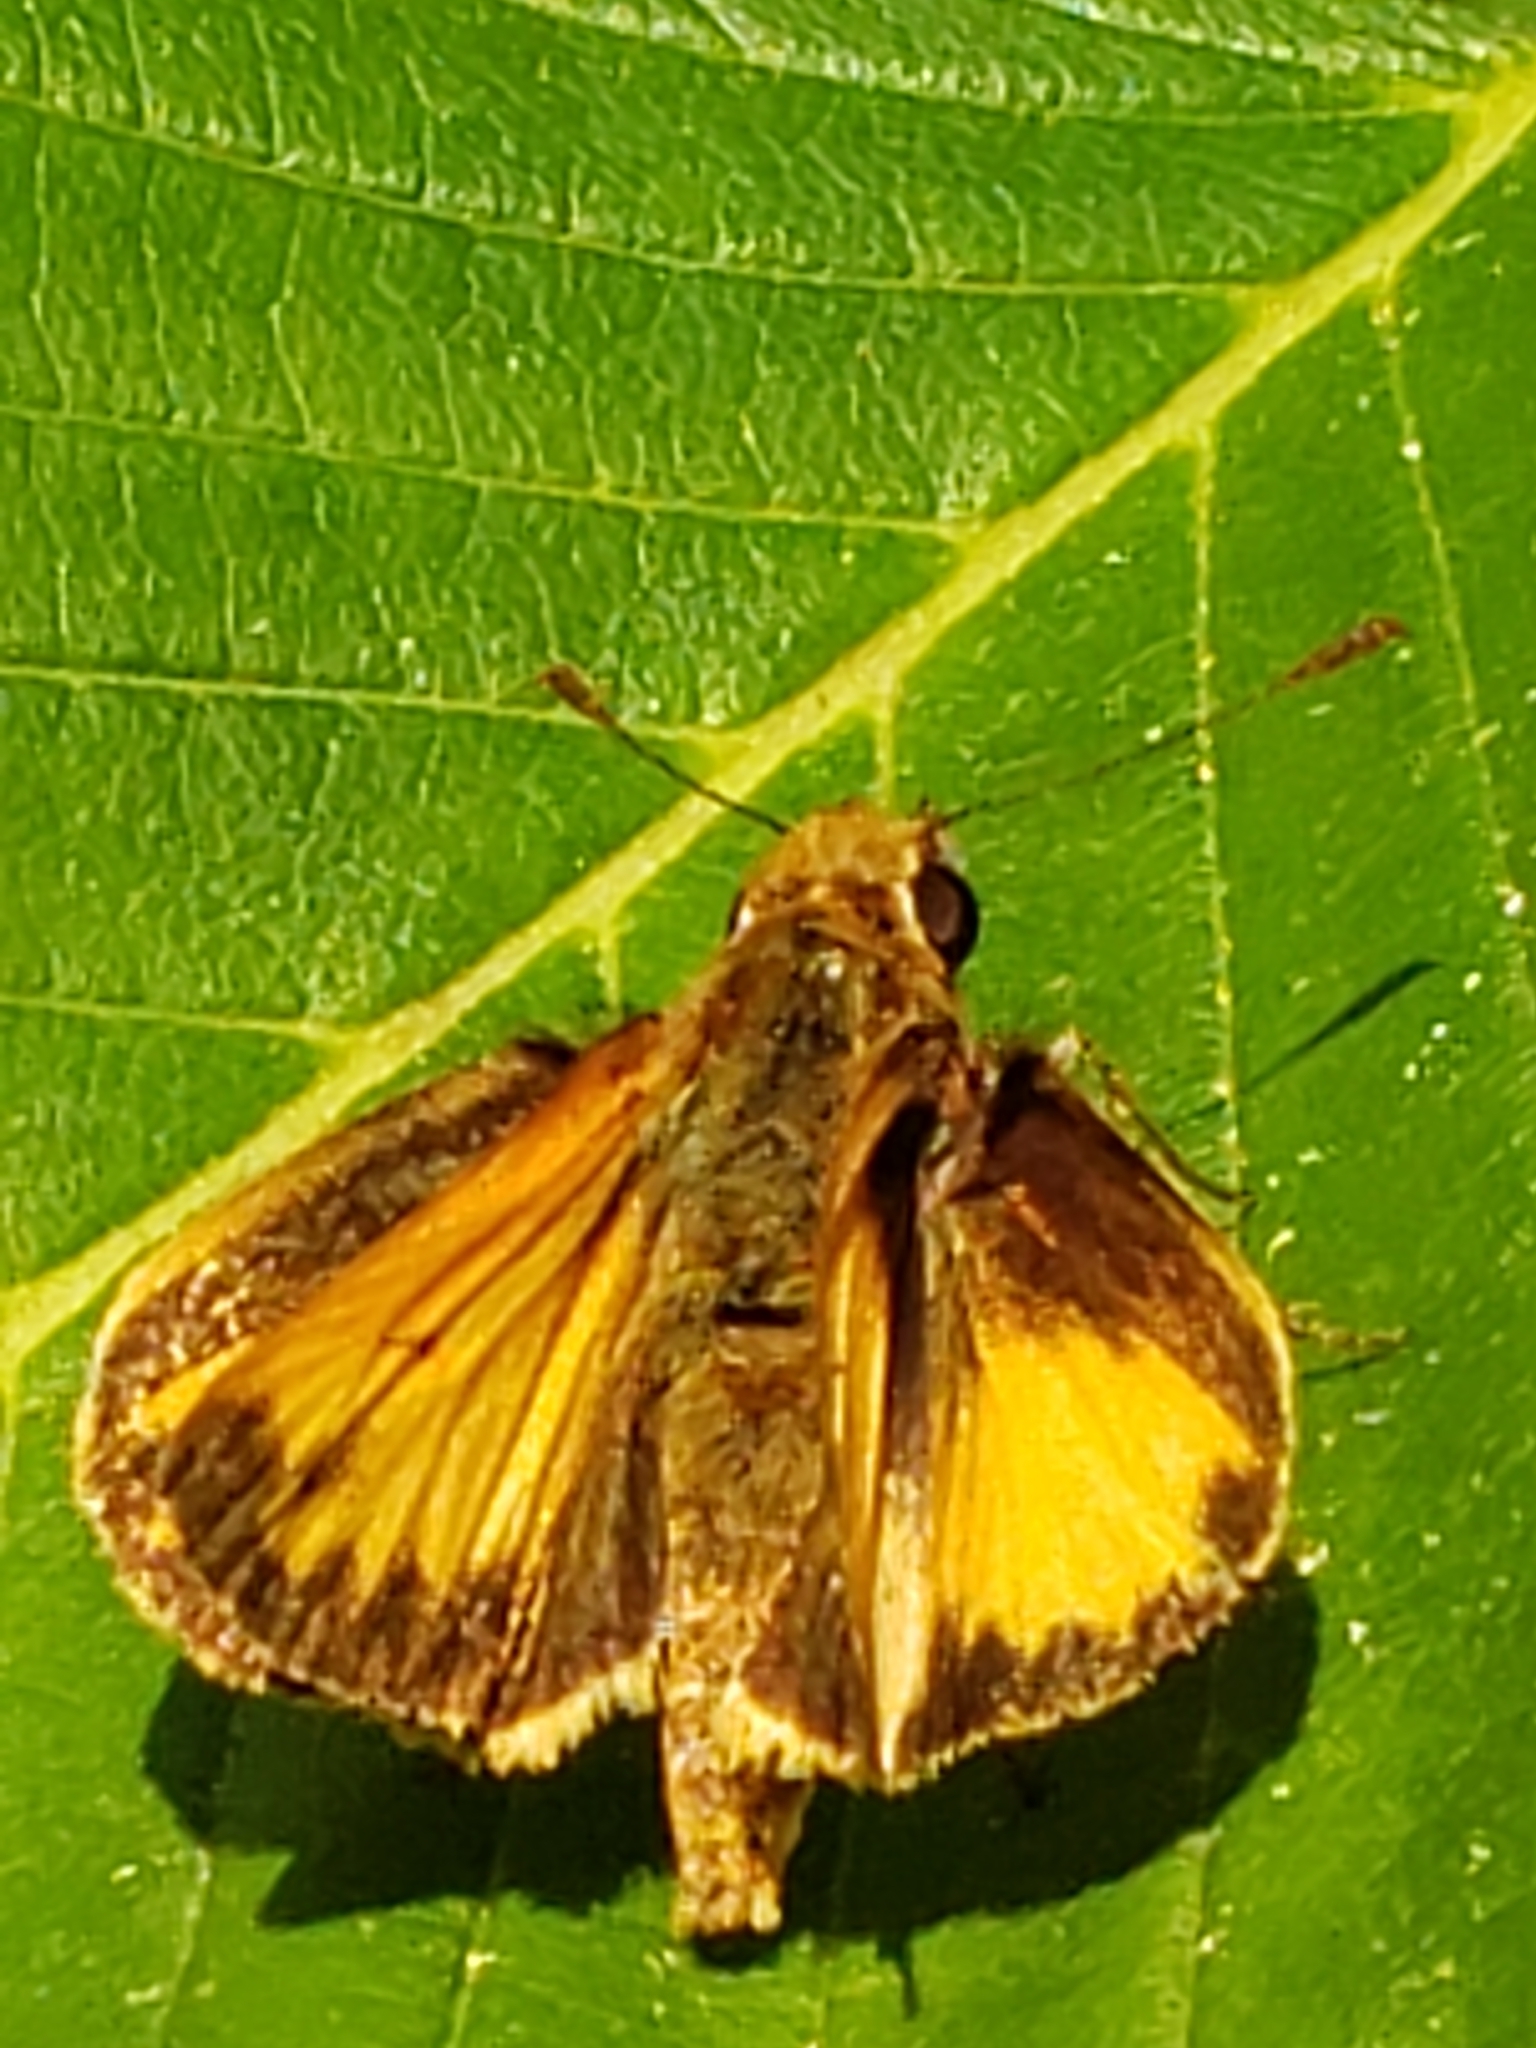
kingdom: Animalia
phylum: Arthropoda
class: Insecta
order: Lepidoptera
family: Hesperiidae
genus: Lon
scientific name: Lon zabulon
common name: Zabulon skipper
